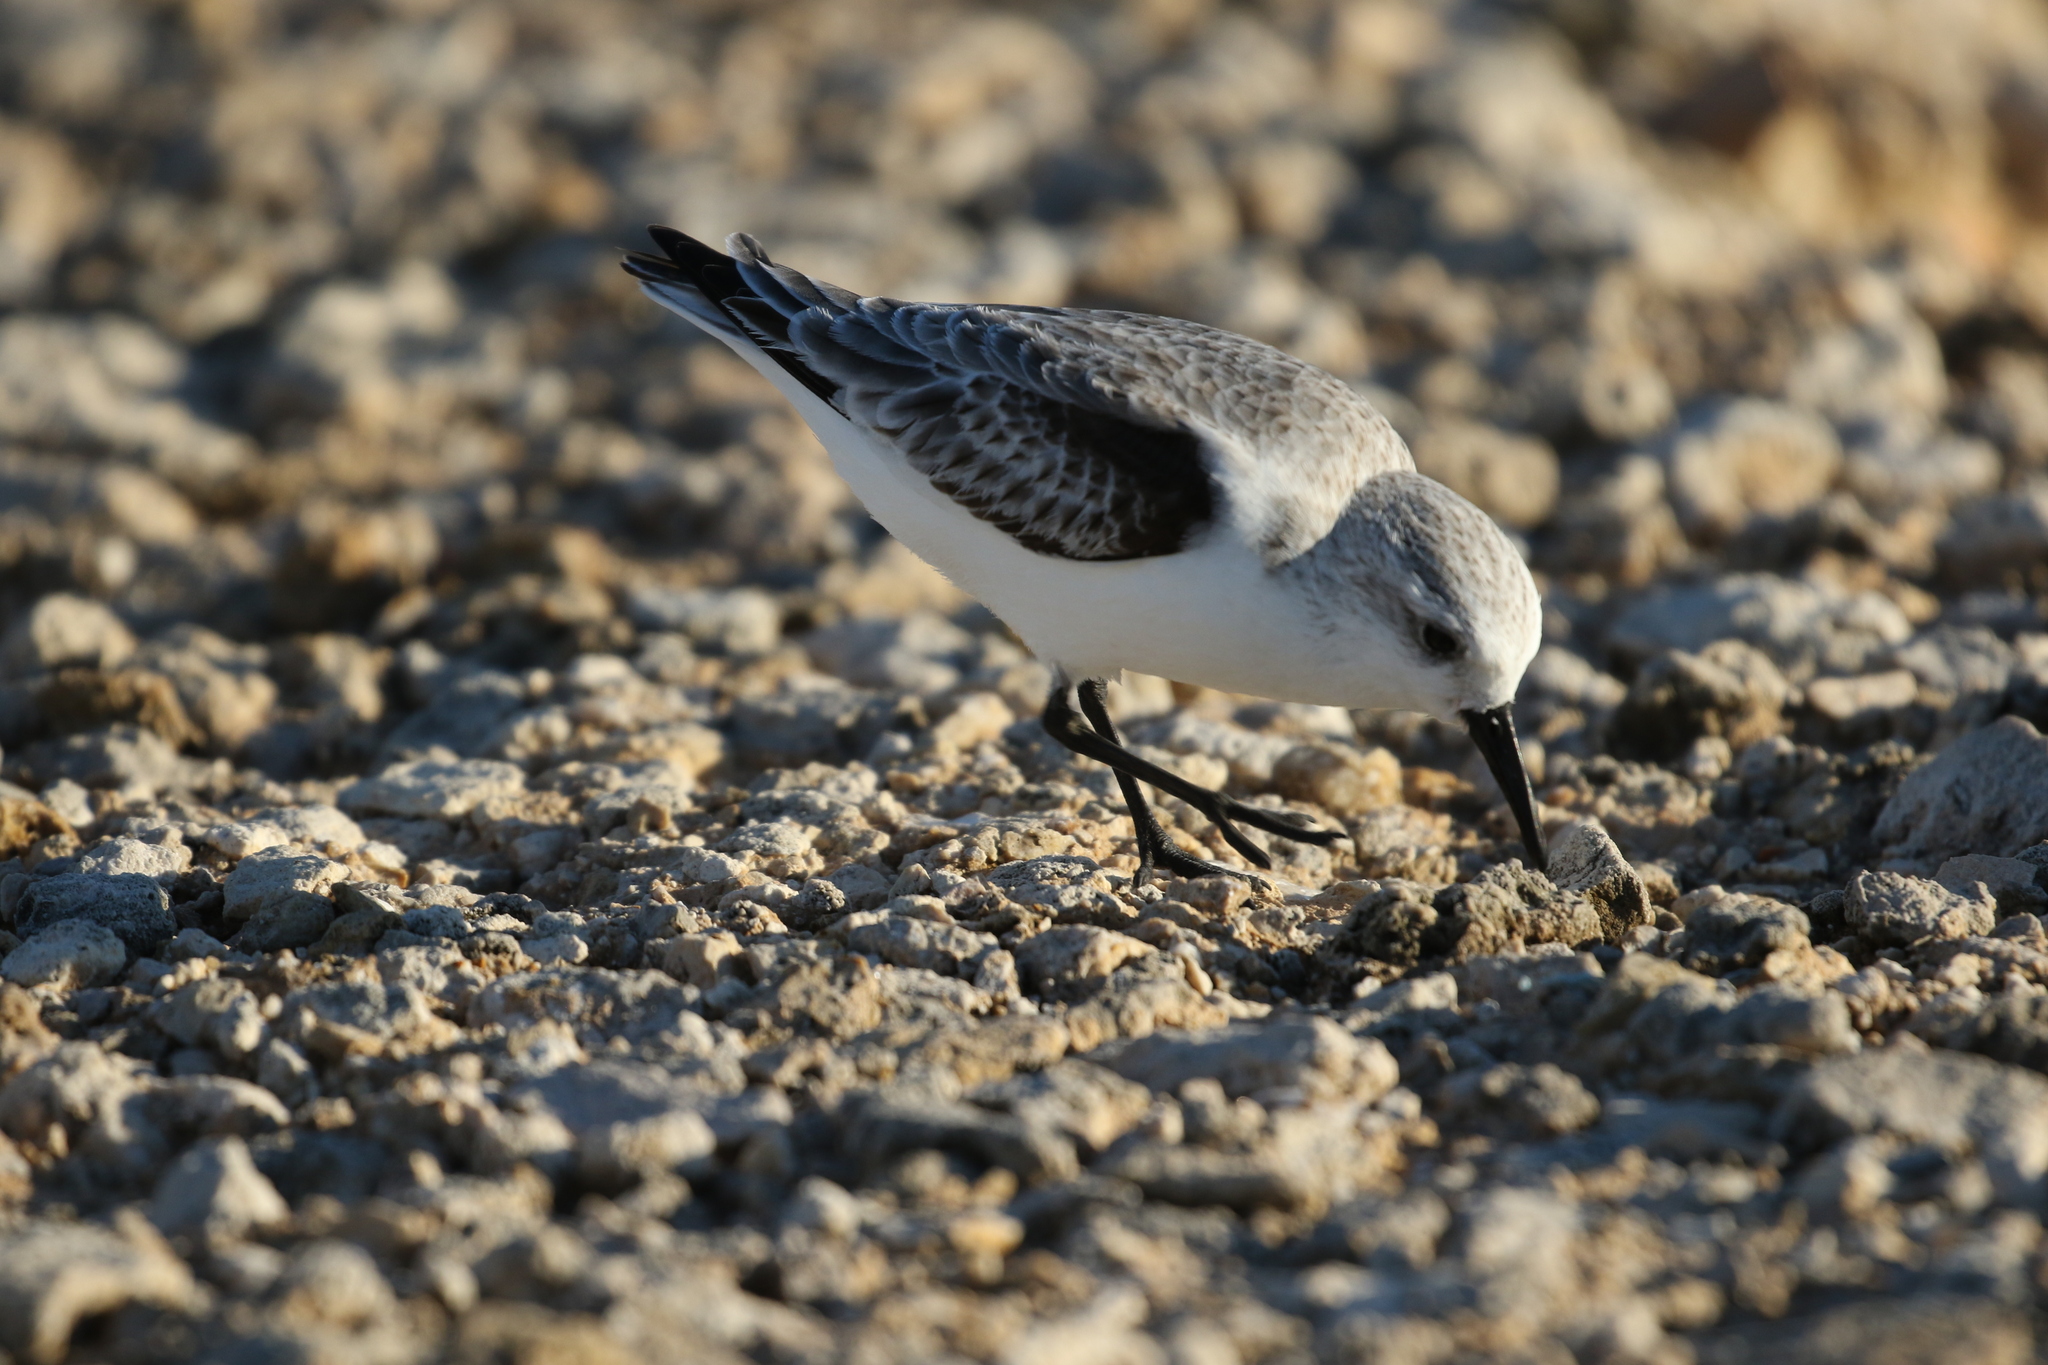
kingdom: Animalia
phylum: Chordata
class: Aves
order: Charadriiformes
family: Scolopacidae
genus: Calidris
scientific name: Calidris alba
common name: Sanderling
